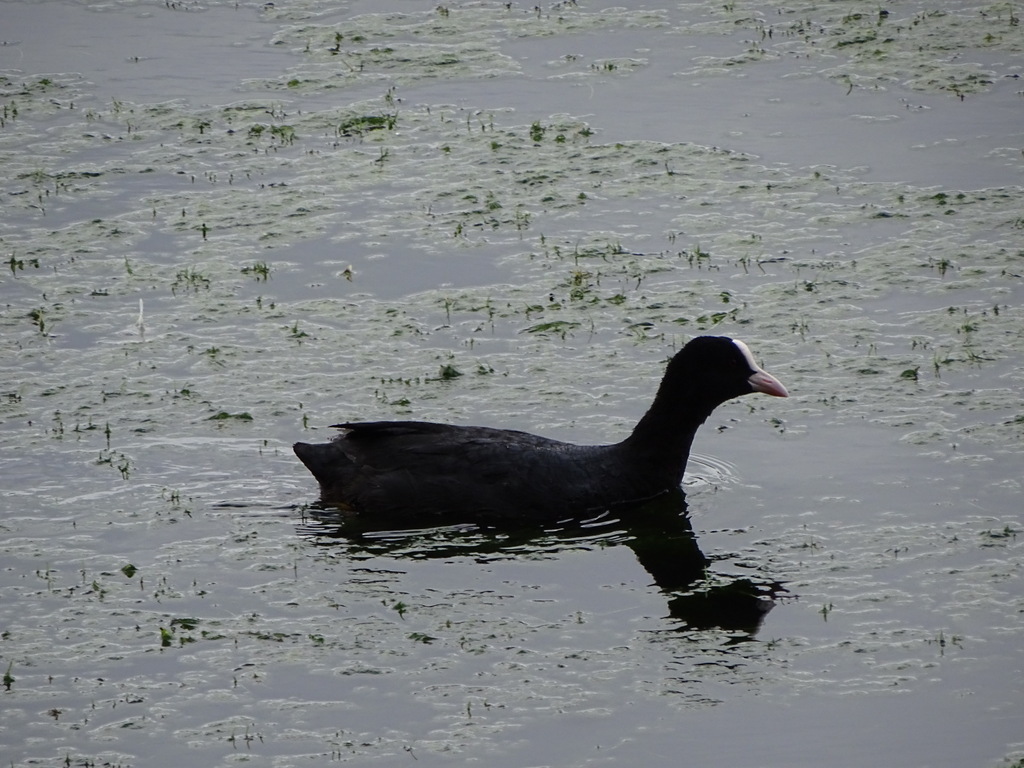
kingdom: Animalia
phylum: Chordata
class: Aves
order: Gruiformes
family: Rallidae
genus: Fulica
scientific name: Fulica atra
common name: Eurasian coot
